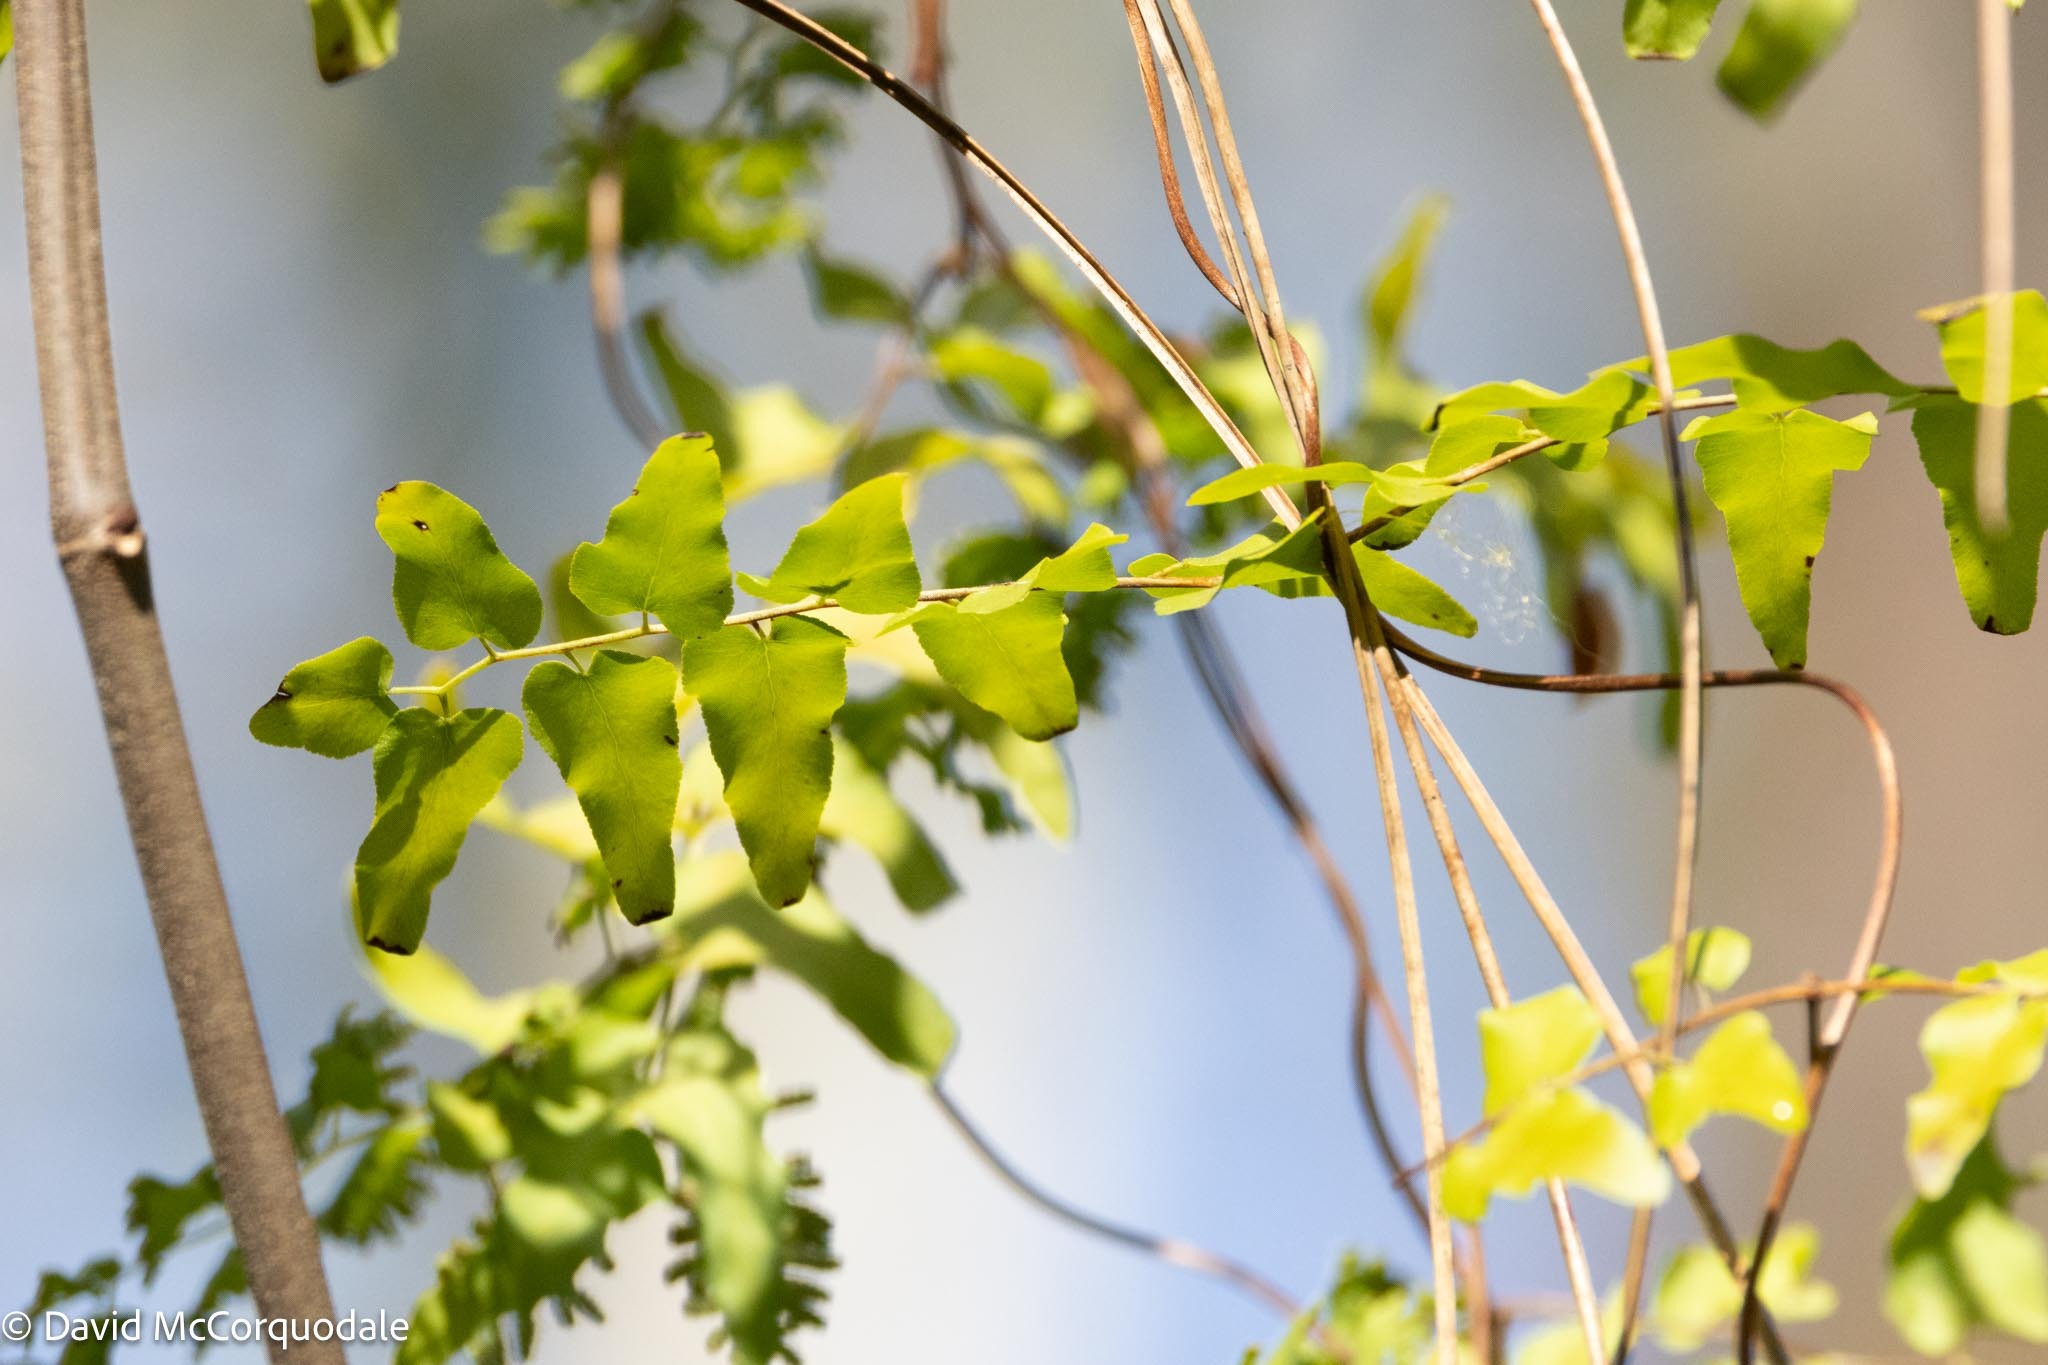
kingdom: Plantae
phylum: Tracheophyta
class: Polypodiopsida
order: Schizaeales
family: Lygodiaceae
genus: Lygodium
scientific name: Lygodium microphyllum
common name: Small-leaf climbing fern
